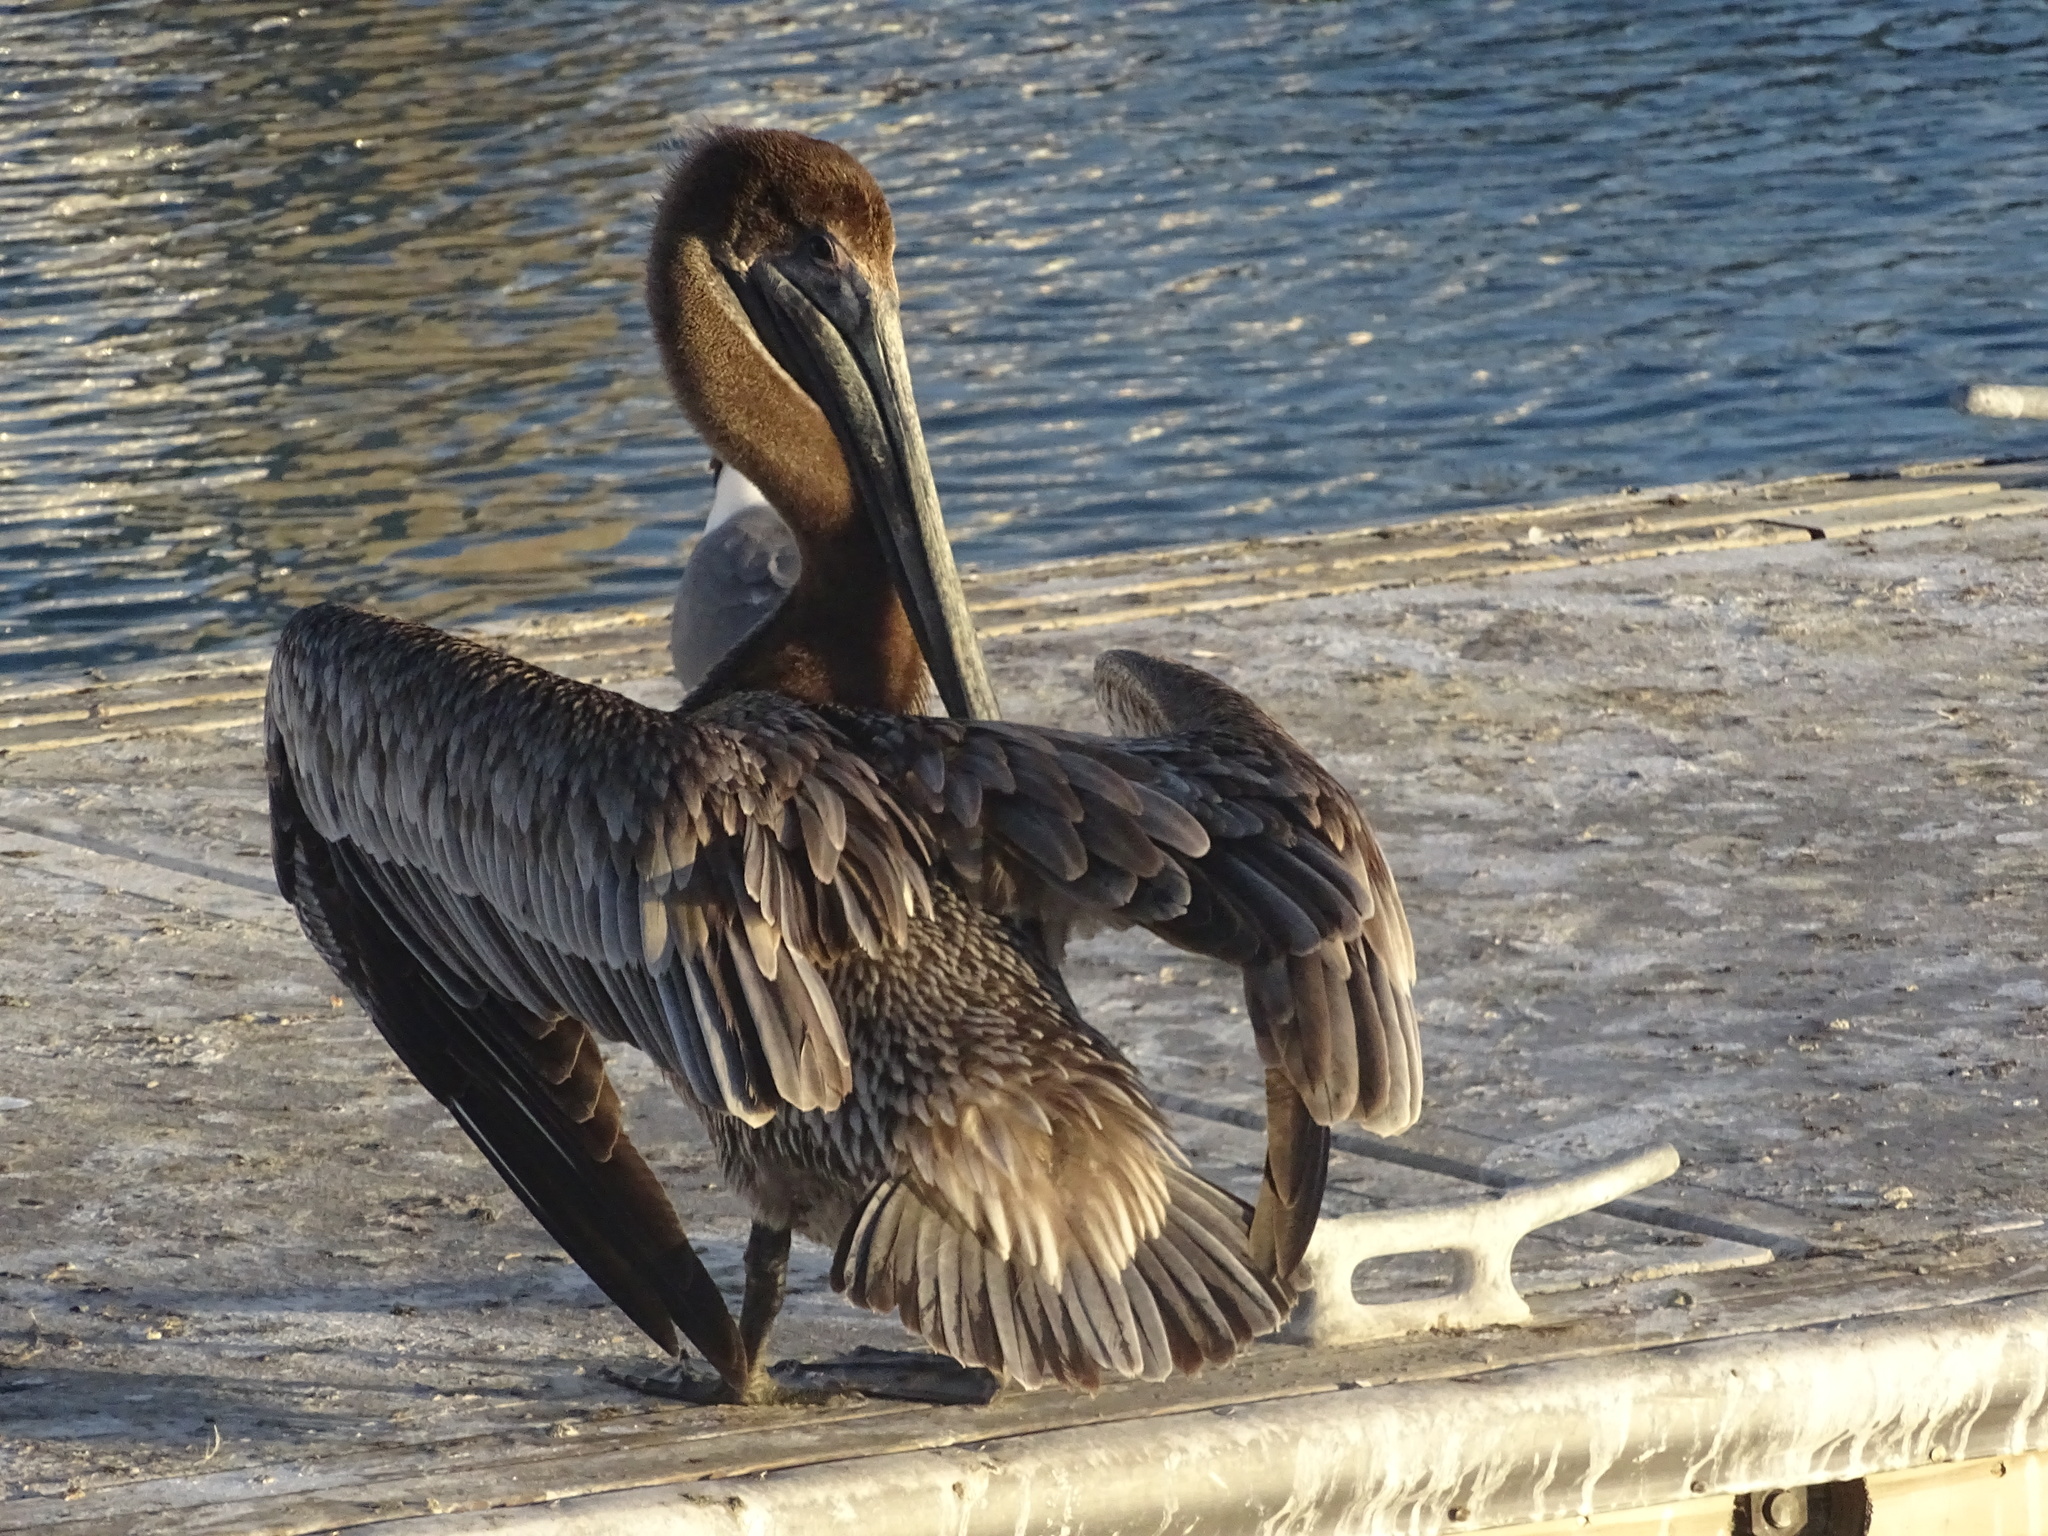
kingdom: Animalia
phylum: Chordata
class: Aves
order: Pelecaniformes
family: Pelecanidae
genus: Pelecanus
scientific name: Pelecanus occidentalis
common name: Brown pelican
